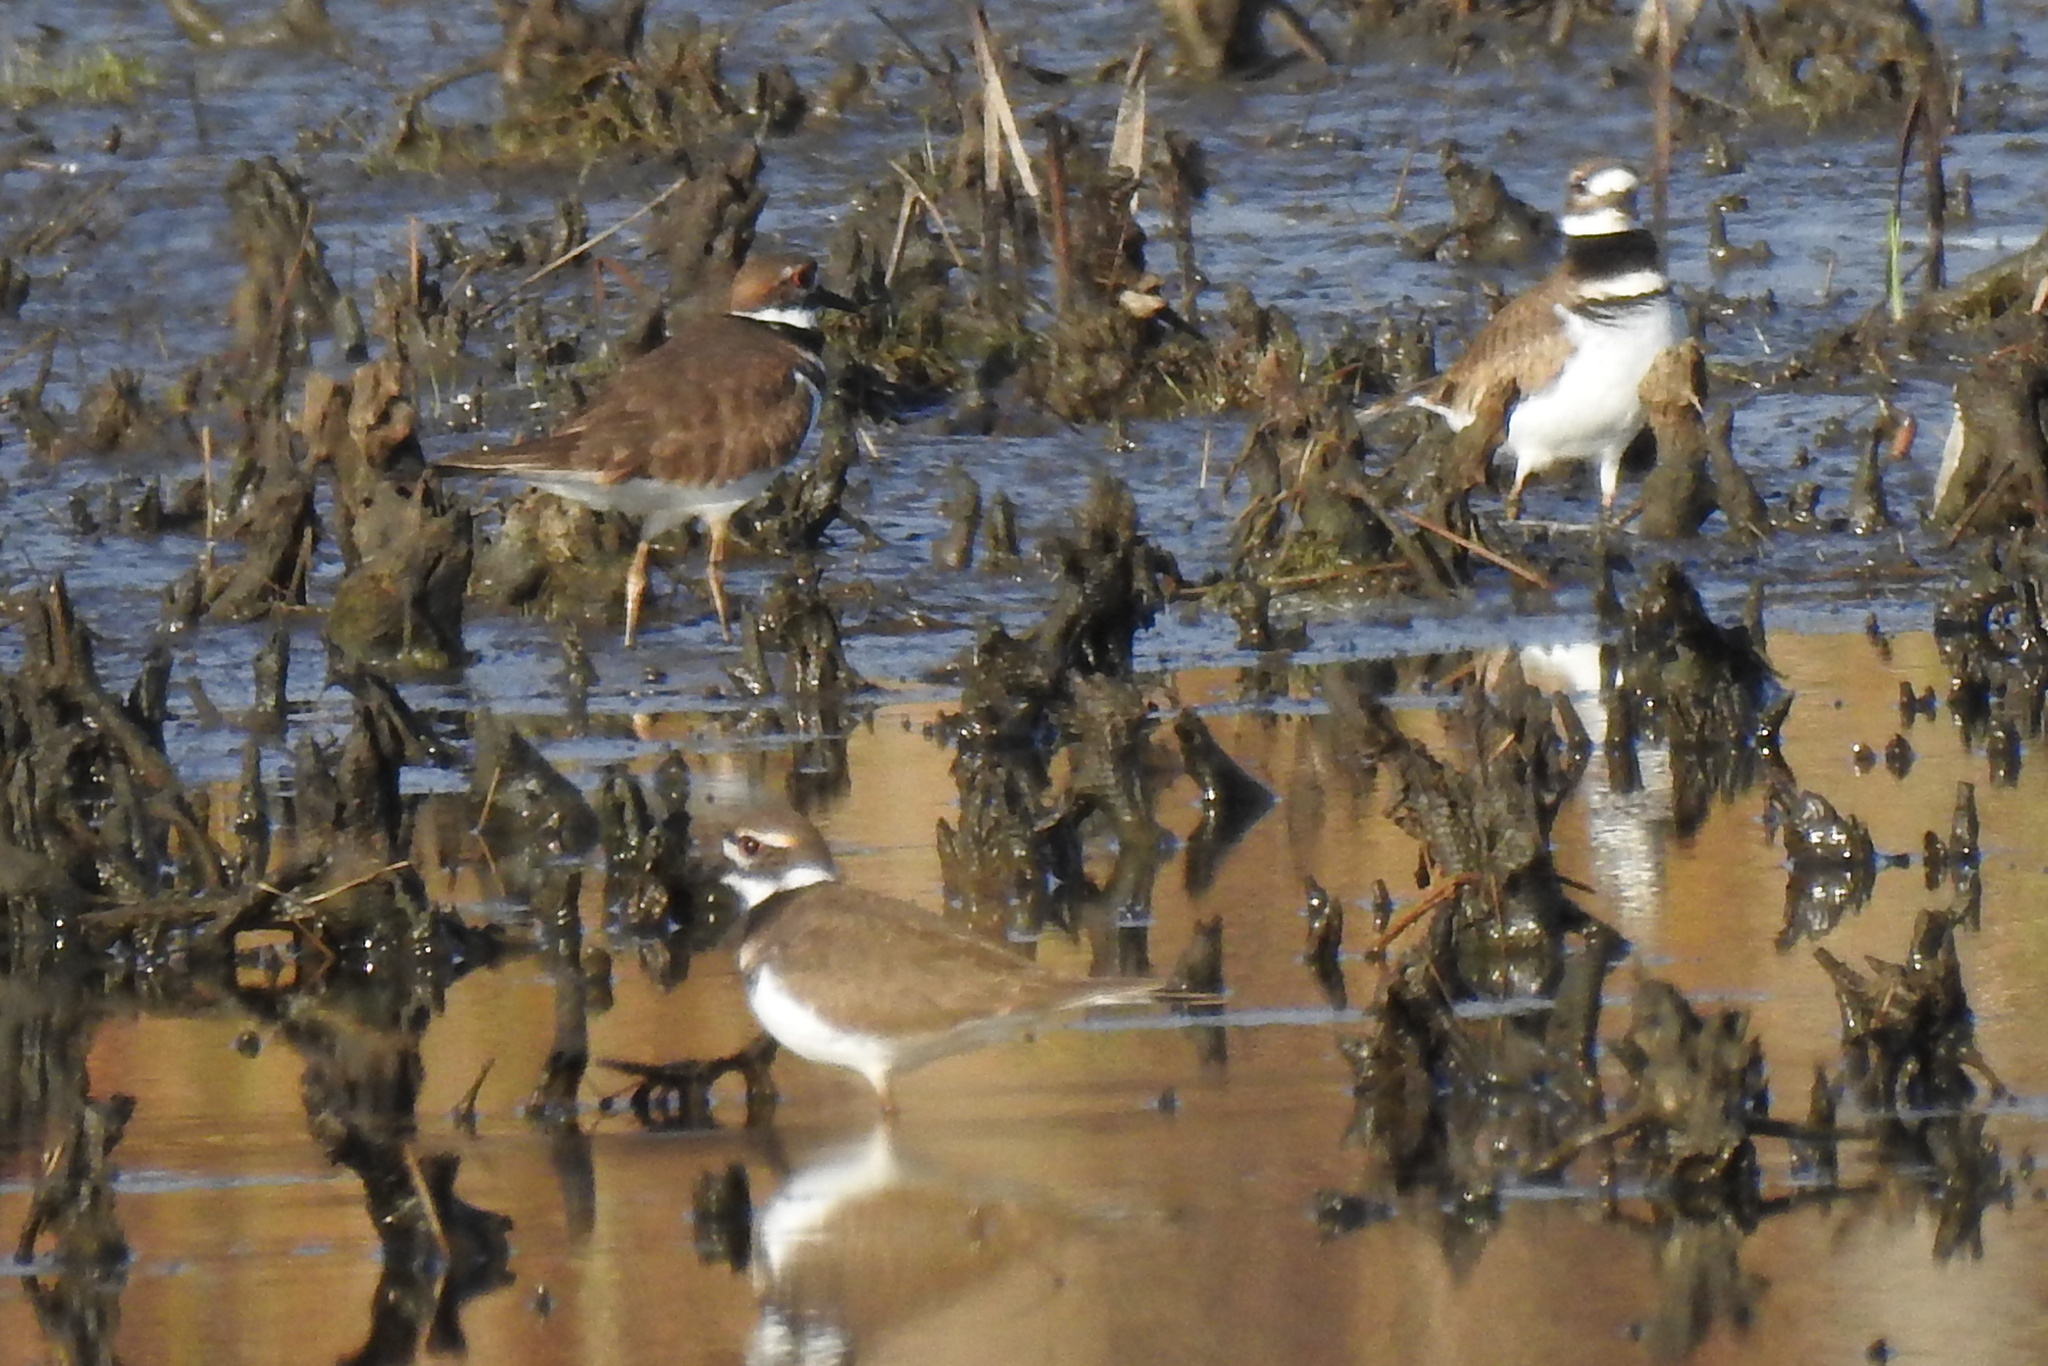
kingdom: Animalia
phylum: Chordata
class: Aves
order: Charadriiformes
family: Charadriidae
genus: Charadrius
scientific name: Charadrius vociferus
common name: Killdeer
